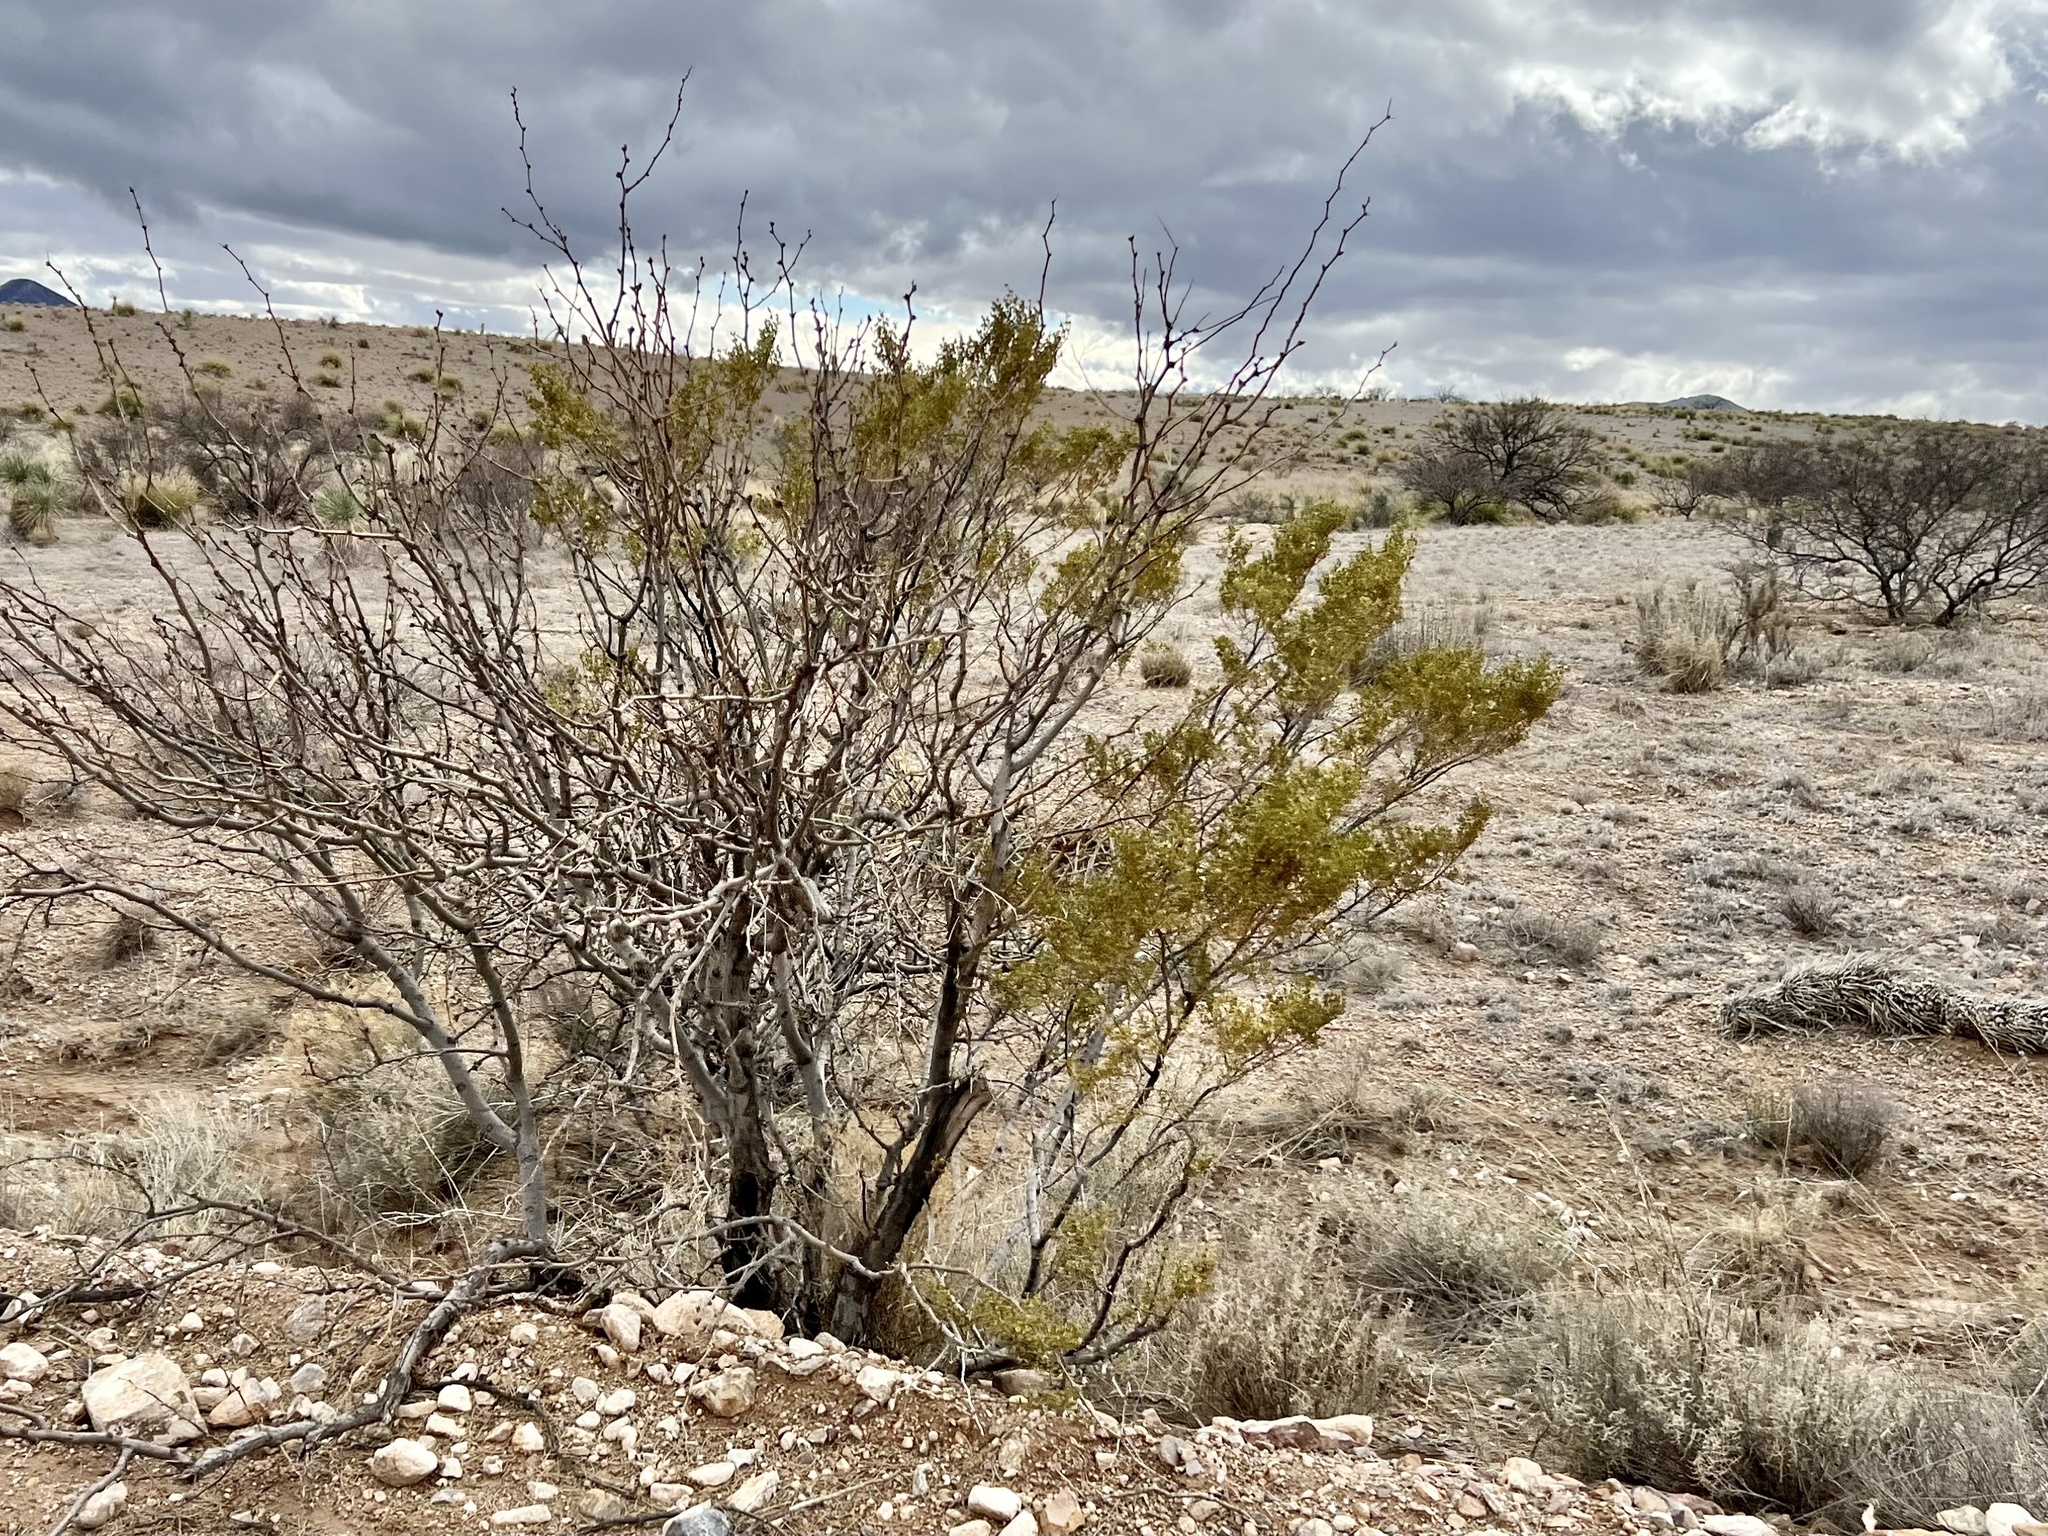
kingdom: Plantae
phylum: Tracheophyta
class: Magnoliopsida
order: Zygophyllales
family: Zygophyllaceae
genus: Larrea
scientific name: Larrea tridentata
